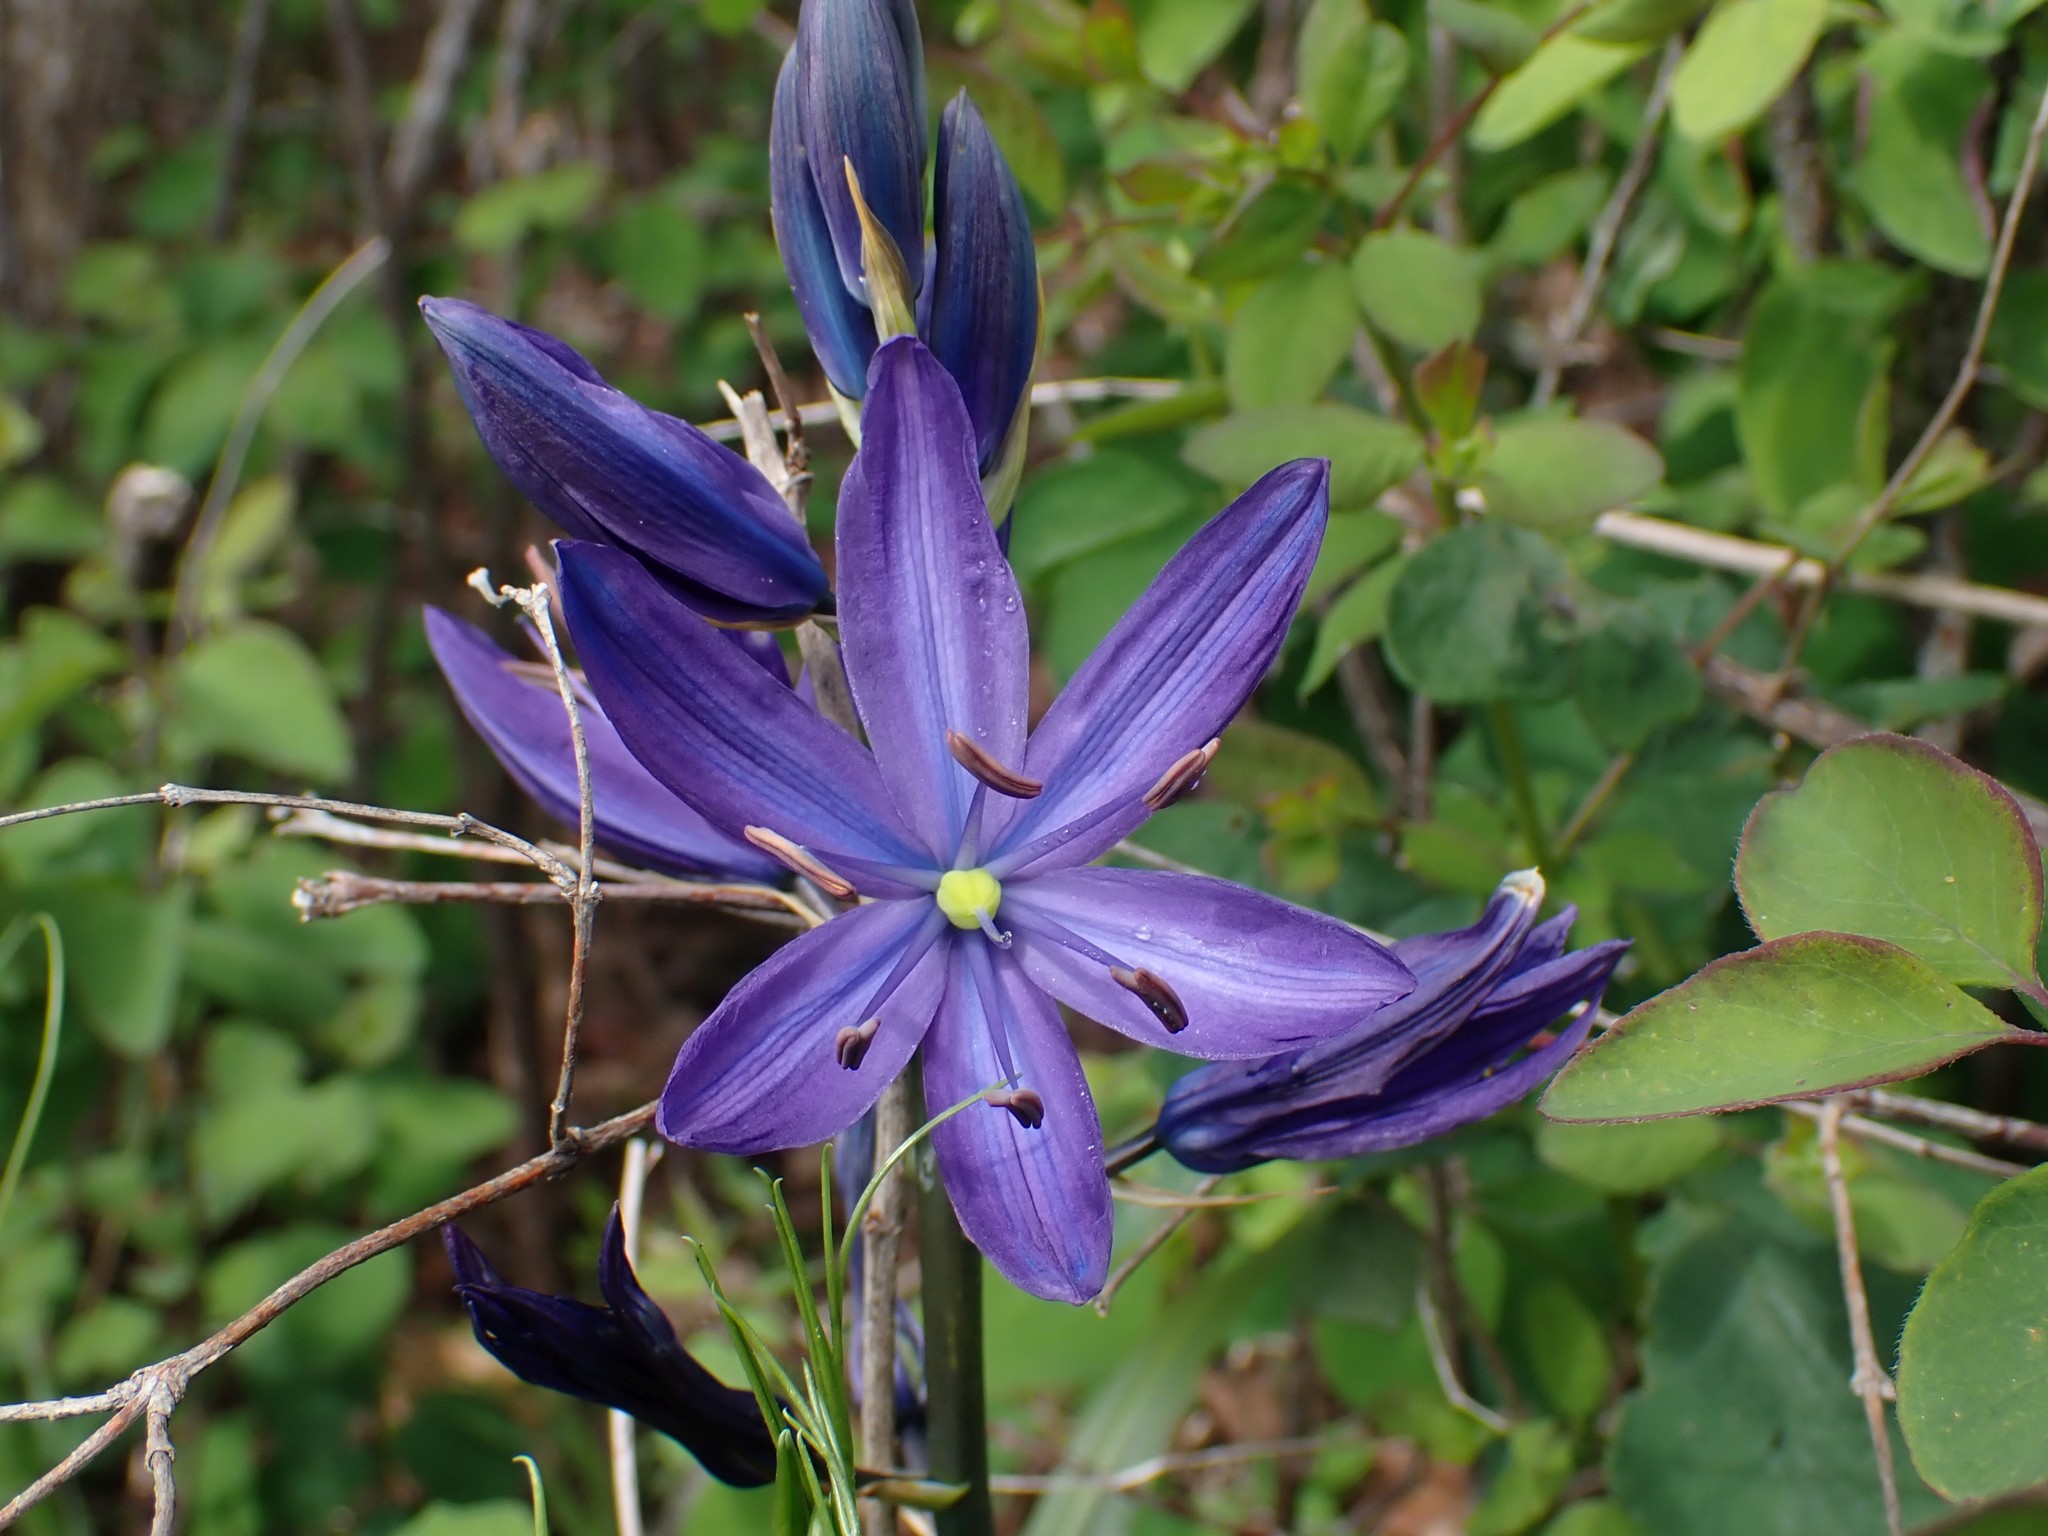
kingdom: Plantae
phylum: Tracheophyta
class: Liliopsida
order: Asparagales
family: Asparagaceae
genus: Camassia
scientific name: Camassia leichtlinii
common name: Leichtlin's camas
